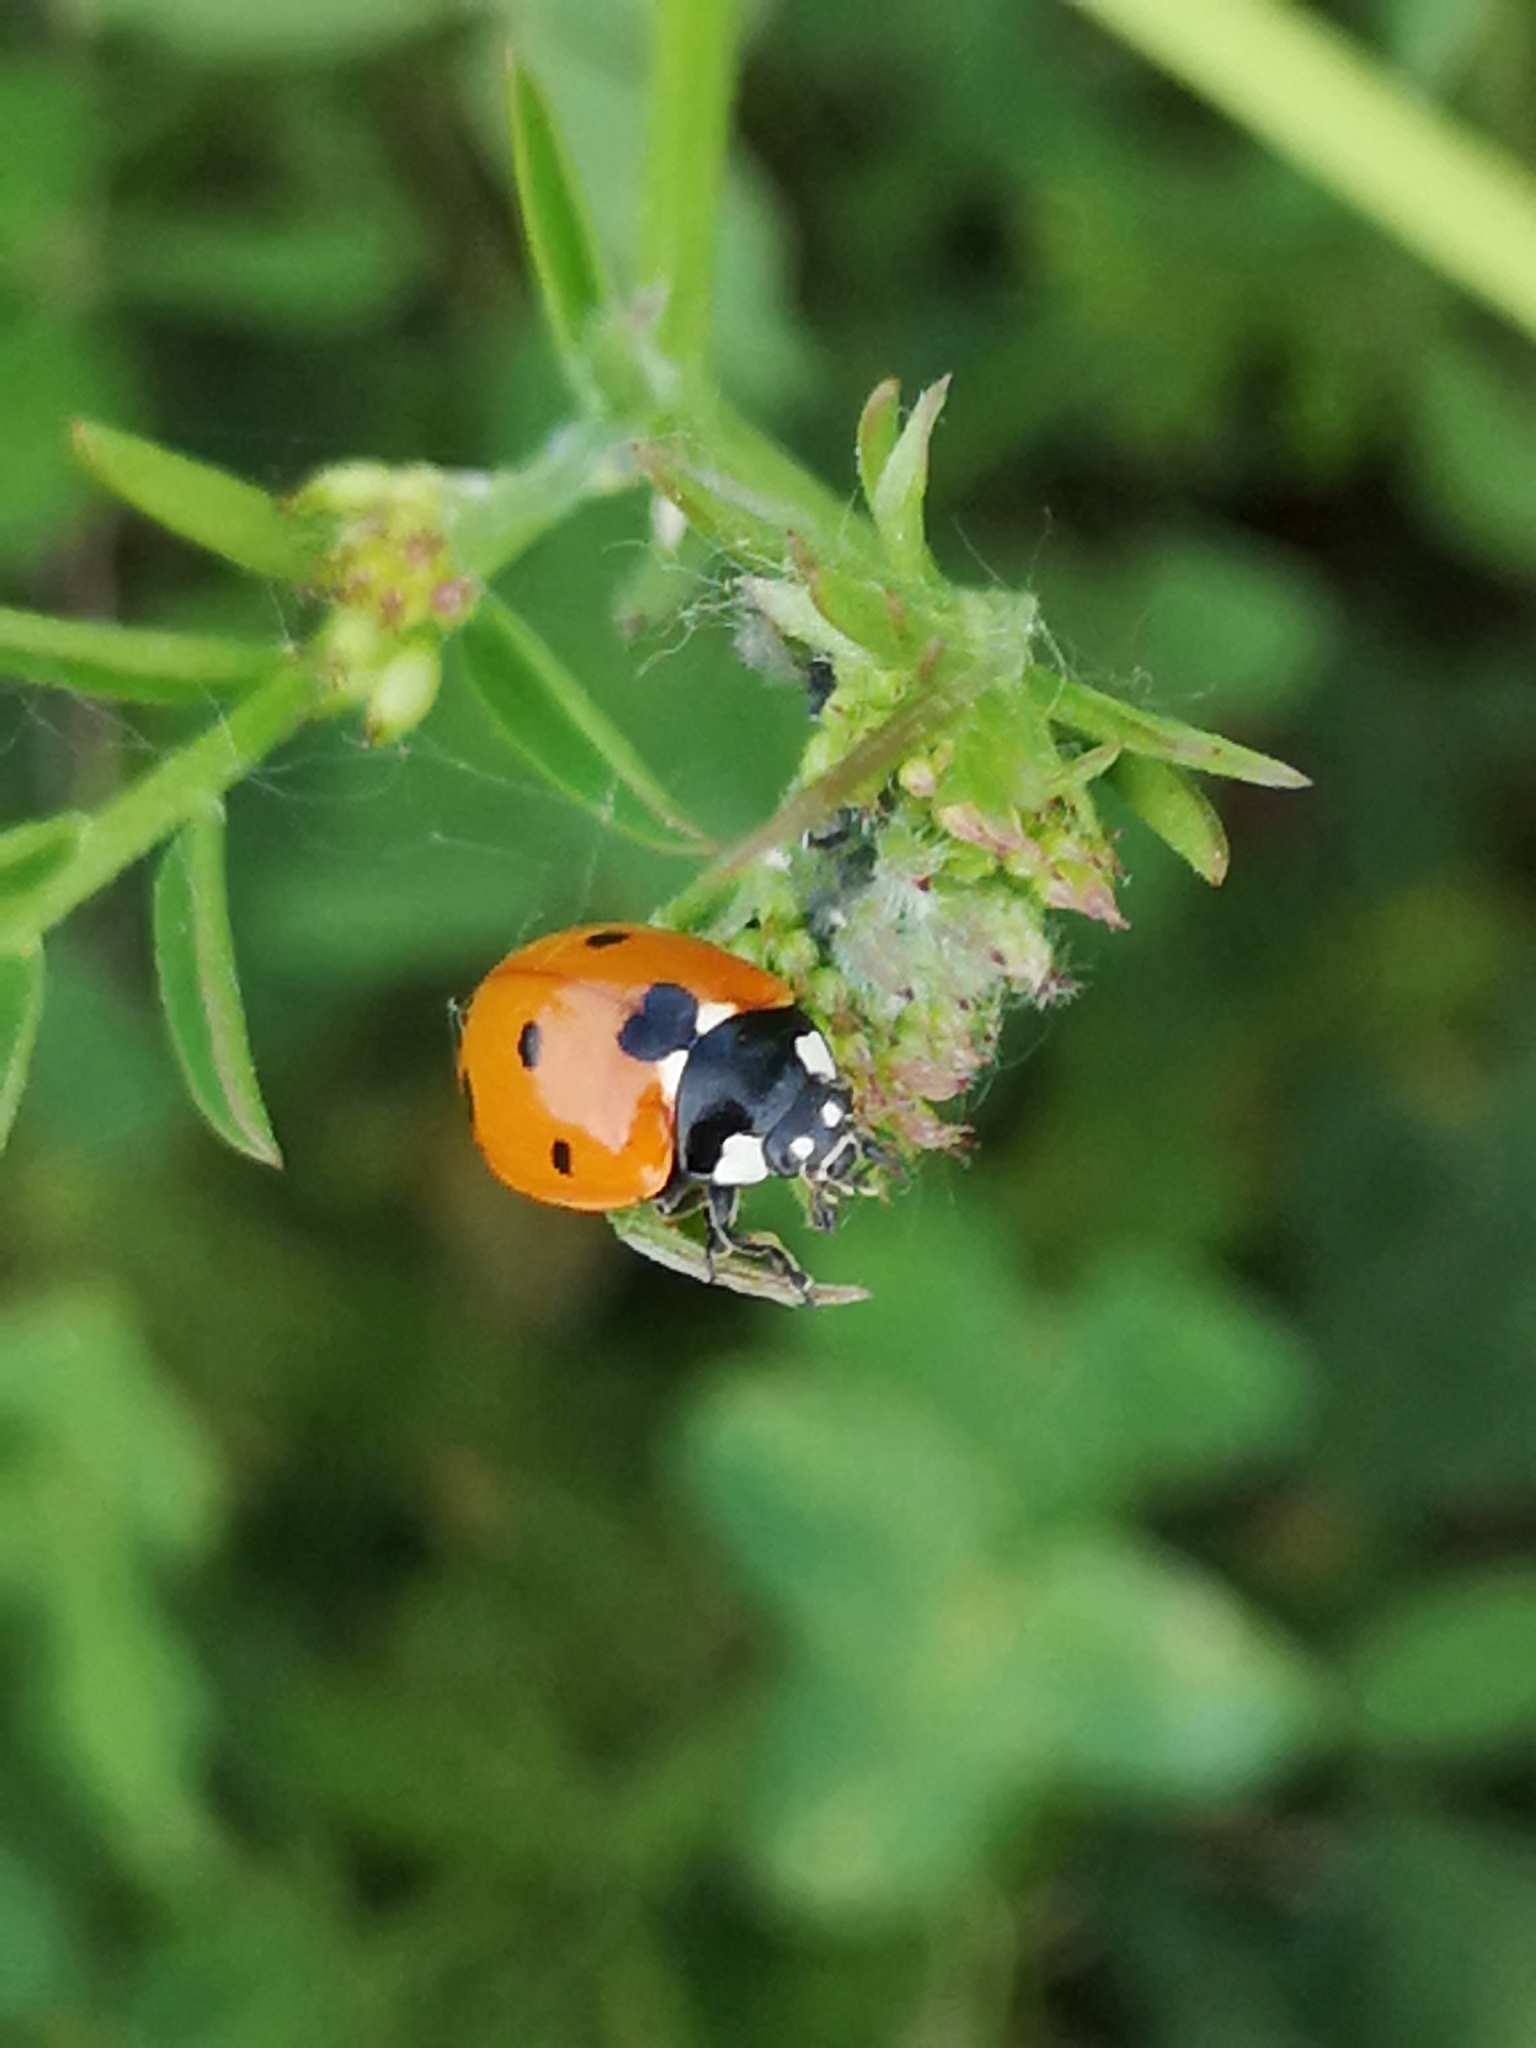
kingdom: Animalia
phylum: Arthropoda
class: Insecta
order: Coleoptera
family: Coccinellidae
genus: Coccinella
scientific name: Coccinella septempunctata
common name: Sevenspotted lady beetle
